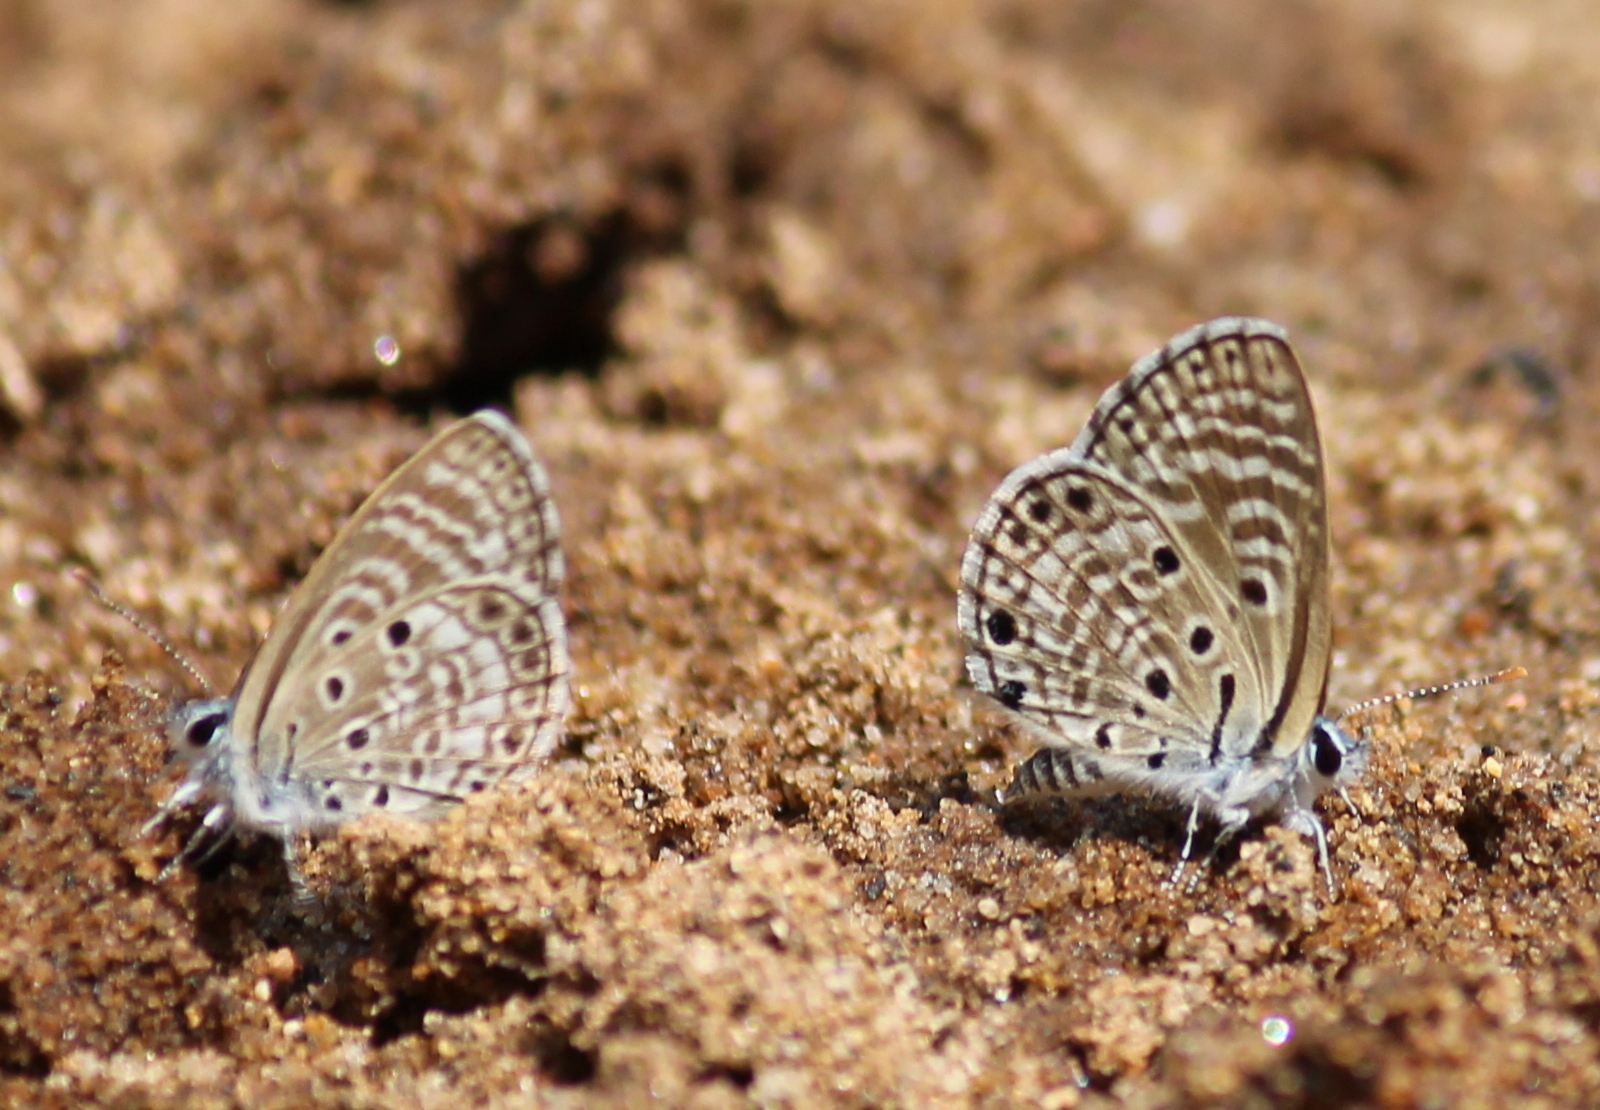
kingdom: Animalia
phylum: Arthropoda
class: Insecta
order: Lepidoptera
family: Lycaenidae
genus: Azanus
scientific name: Azanus jesous
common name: African babul blue
